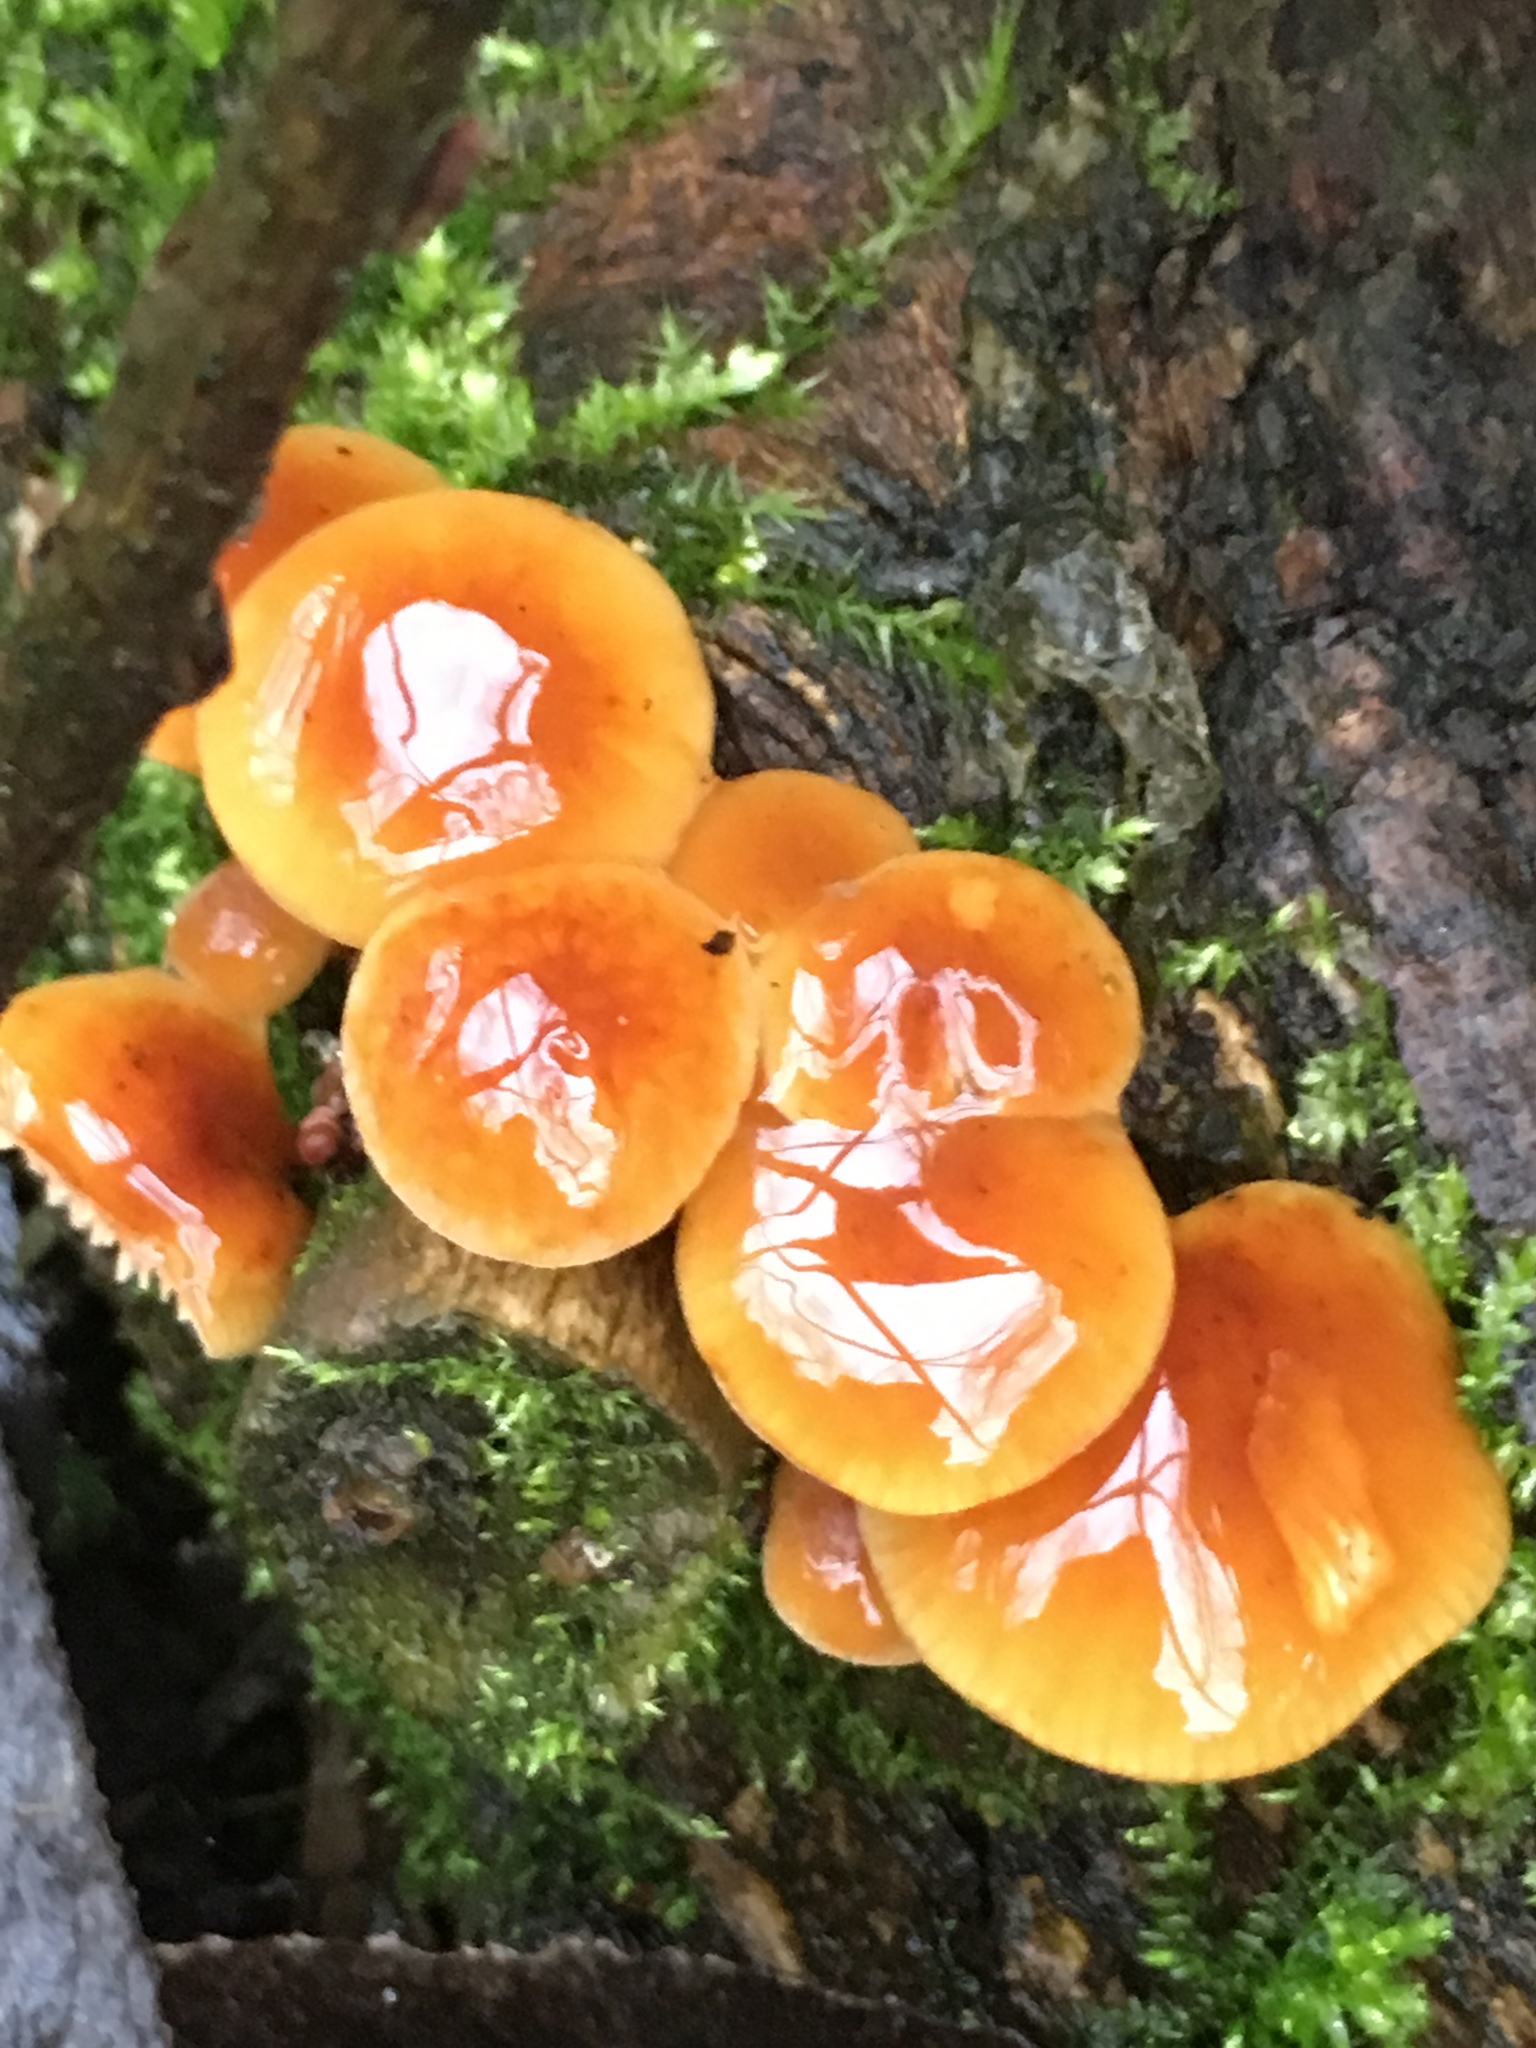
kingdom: Fungi
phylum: Basidiomycota
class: Agaricomycetes
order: Agaricales
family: Physalacriaceae
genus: Flammulina
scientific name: Flammulina
